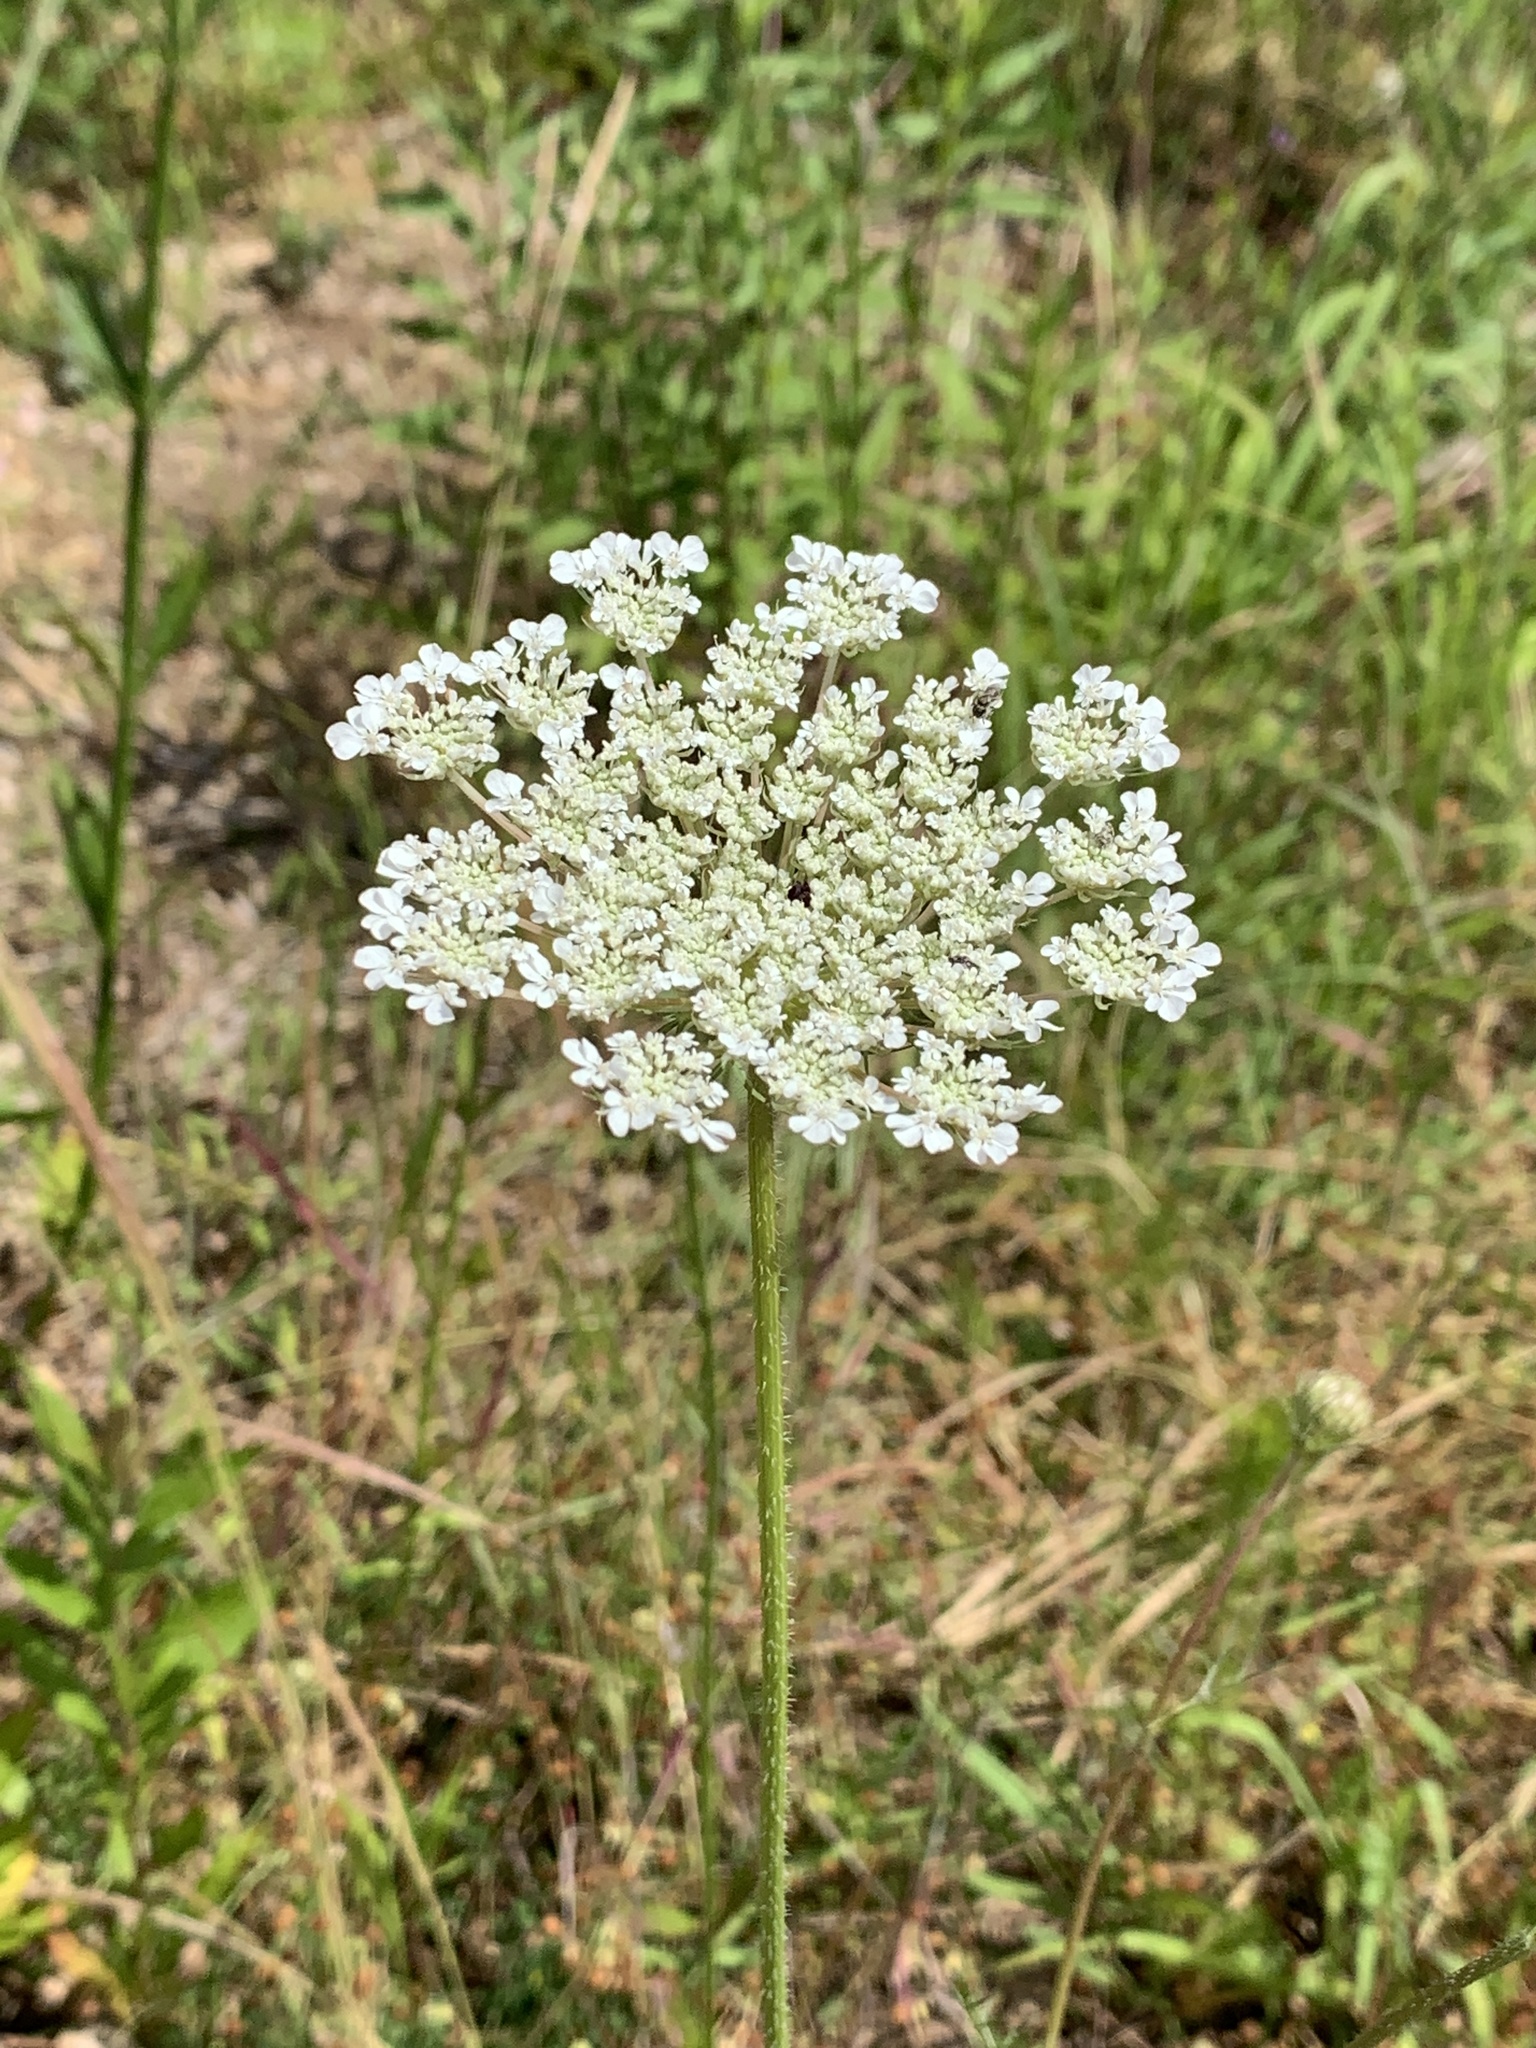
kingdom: Plantae
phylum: Tracheophyta
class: Magnoliopsida
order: Apiales
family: Apiaceae
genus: Daucus
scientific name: Daucus carota
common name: Wild carrot
